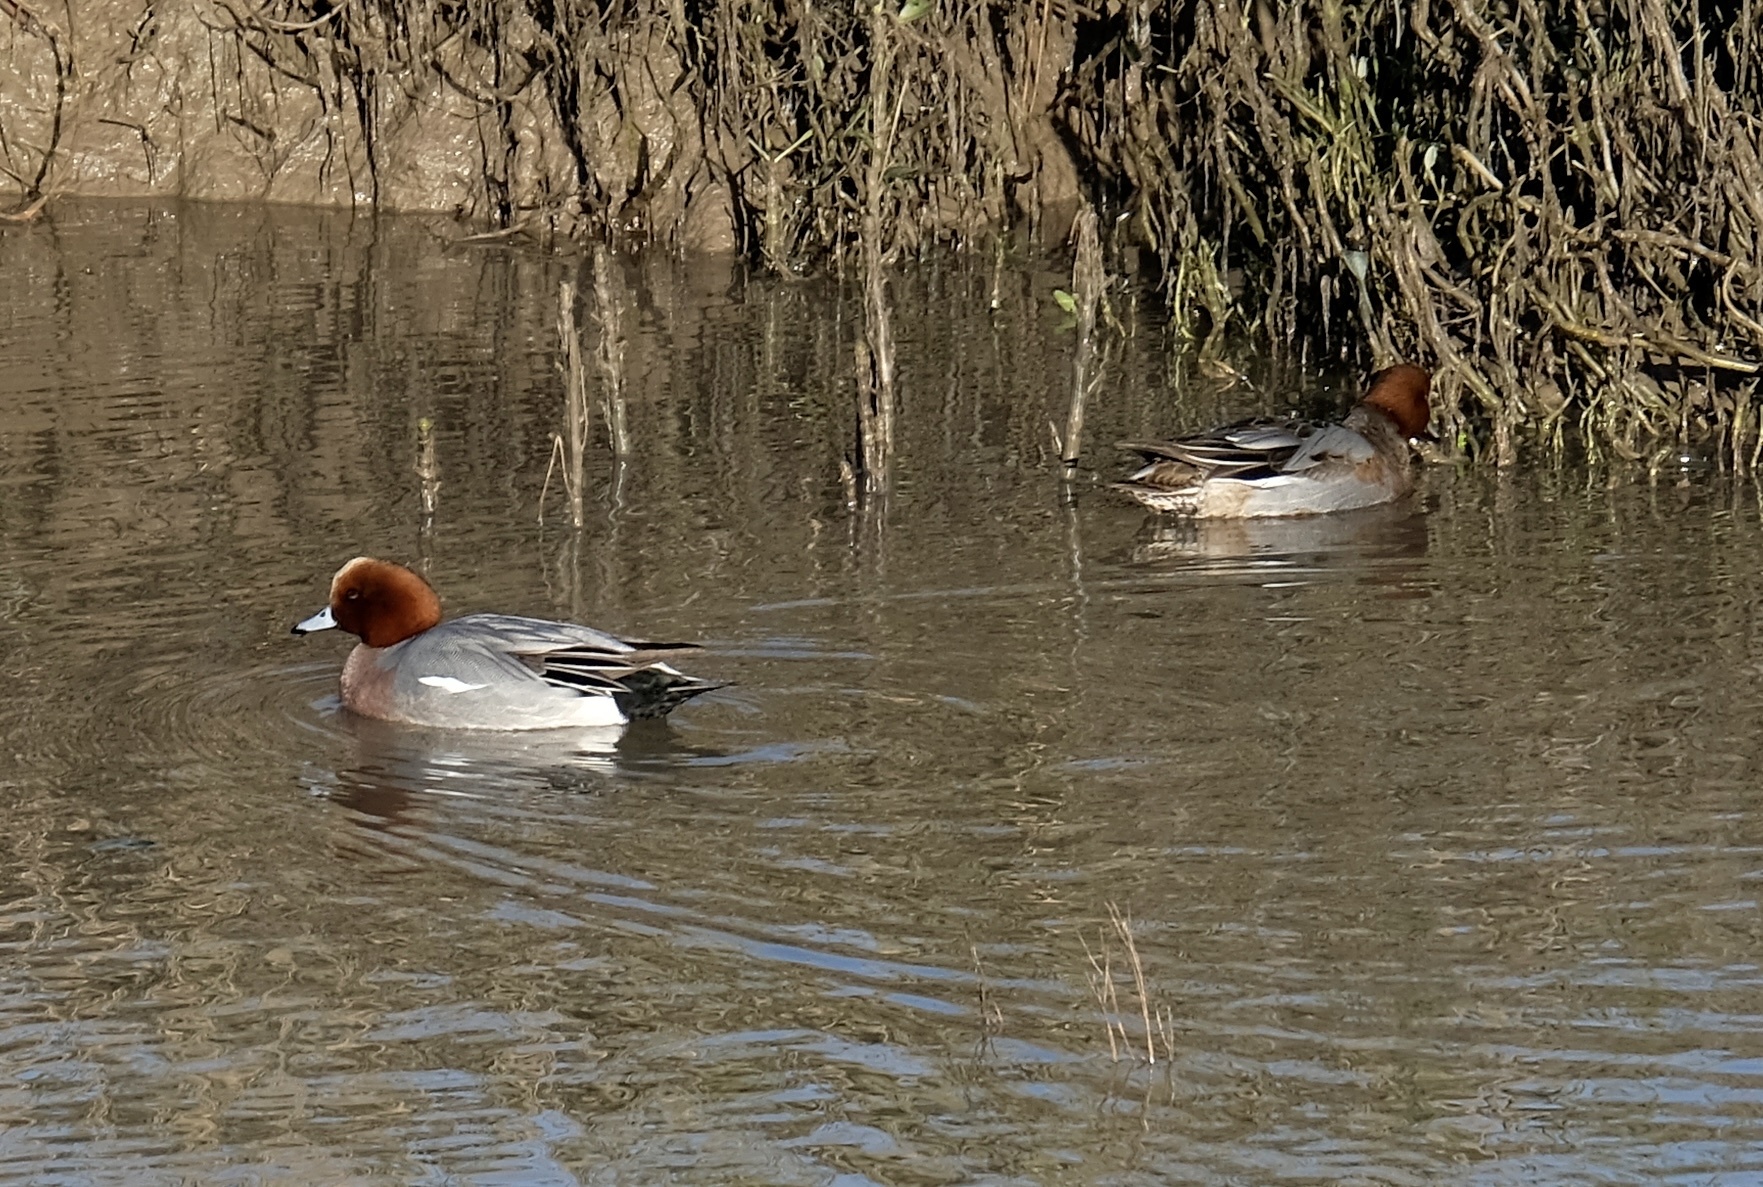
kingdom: Animalia
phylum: Chordata
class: Aves
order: Anseriformes
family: Anatidae
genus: Mareca
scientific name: Mareca penelope
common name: Eurasian wigeon
